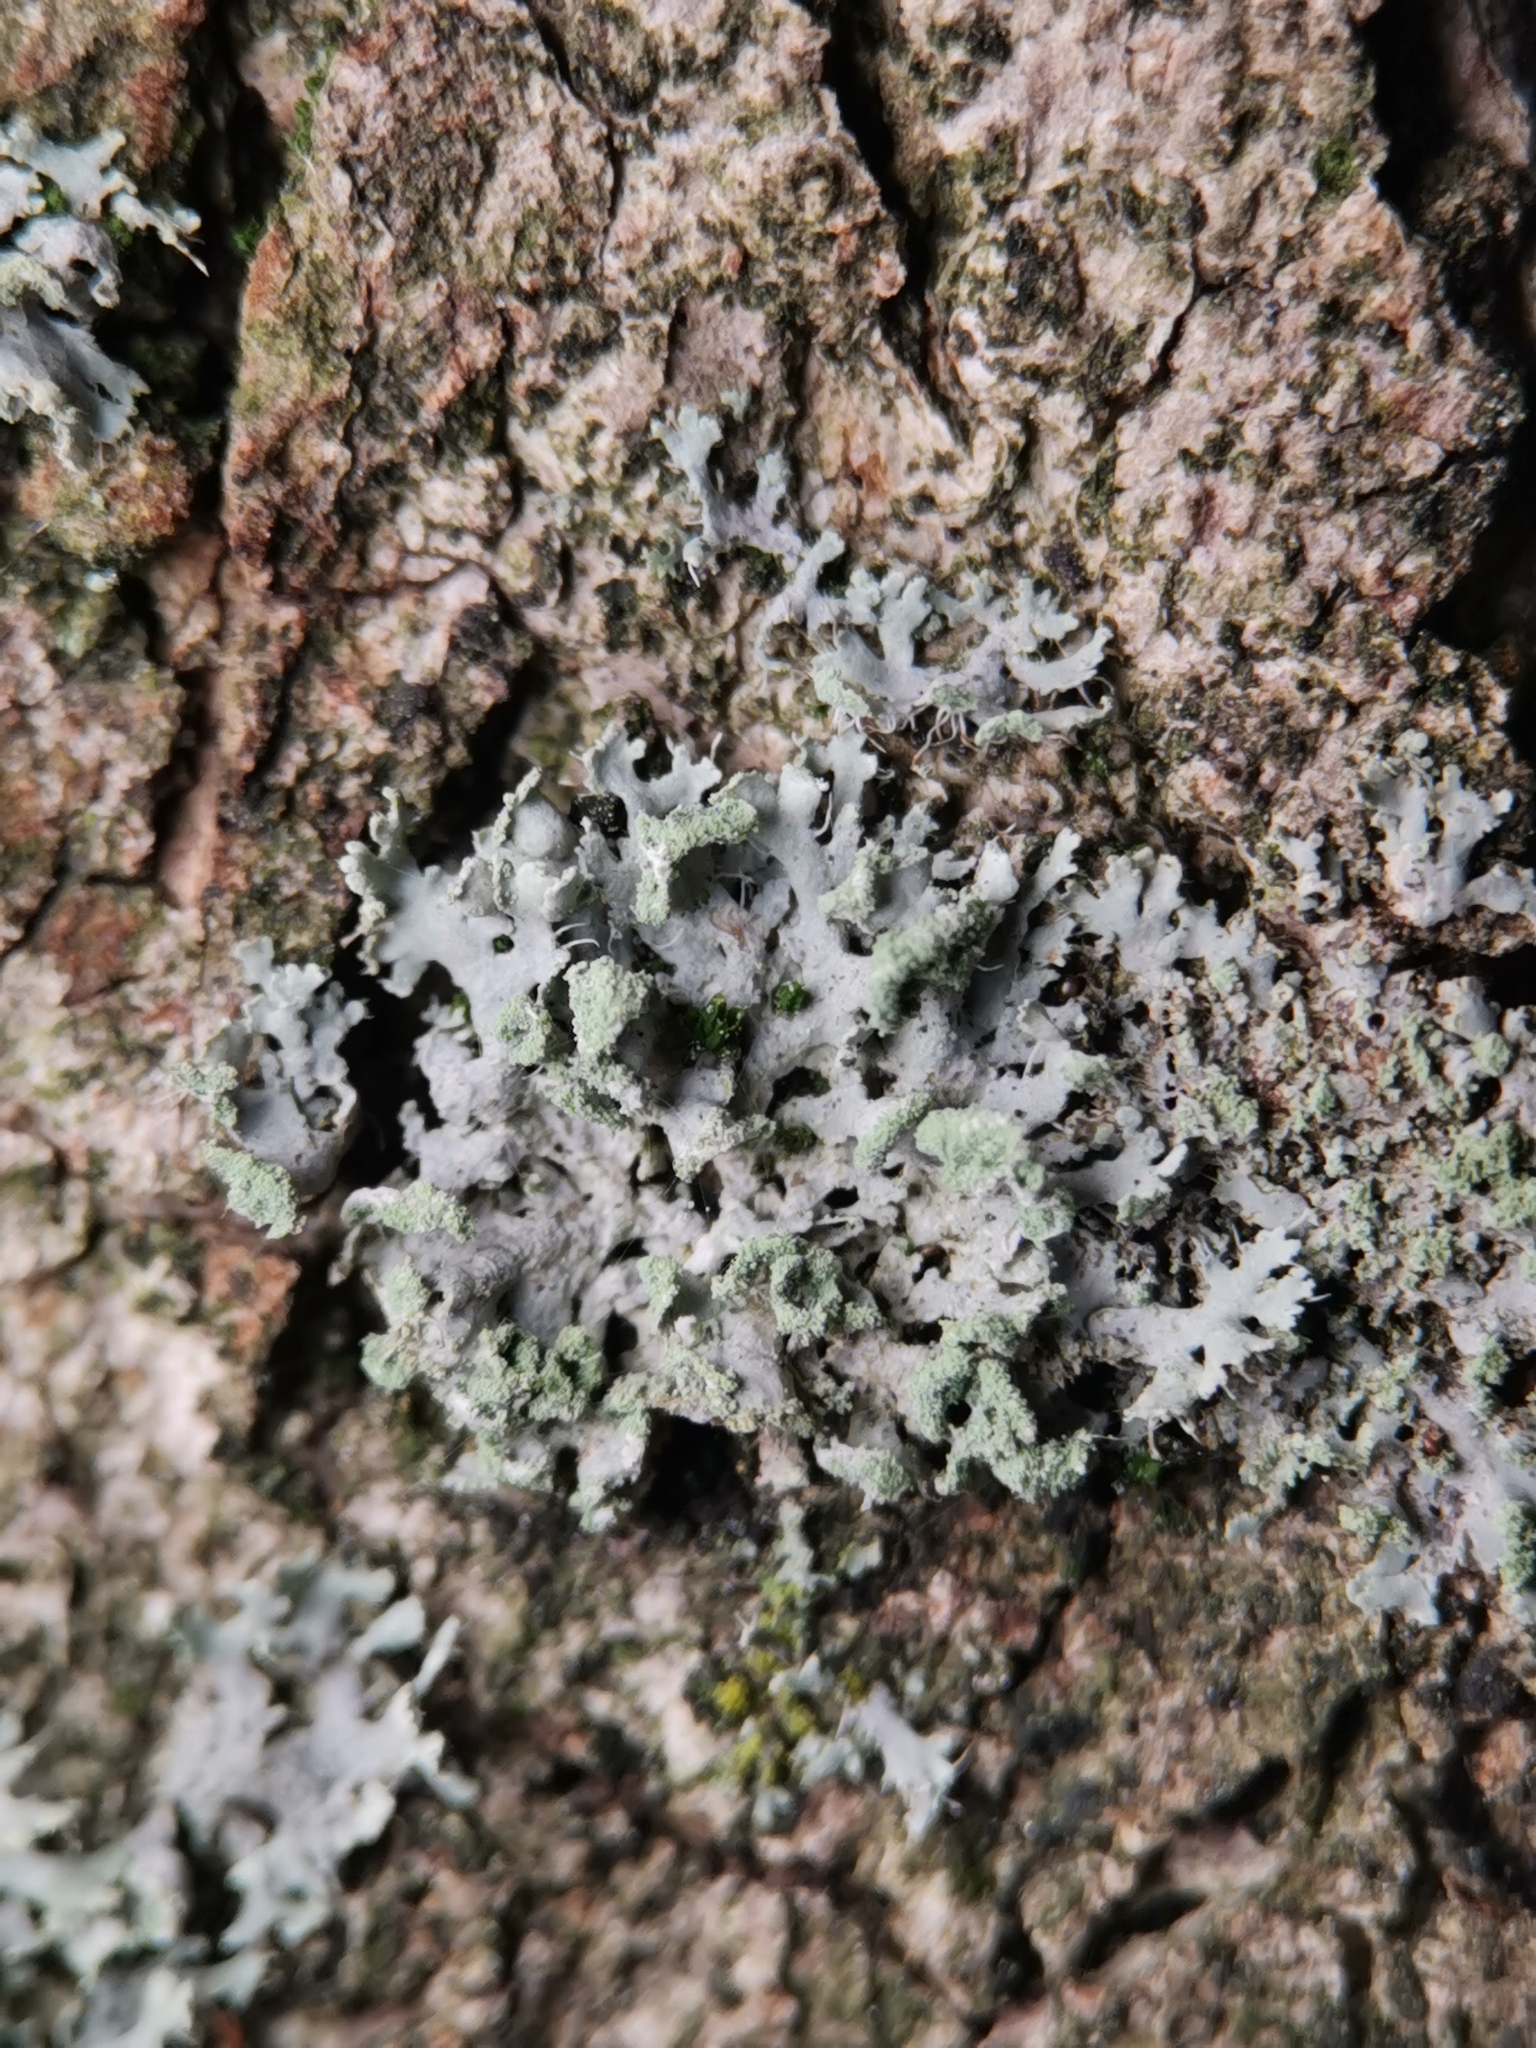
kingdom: Fungi
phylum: Ascomycota
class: Lecanoromycetes
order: Caliciales
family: Physciaceae
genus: Physcia
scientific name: Physcia tenella
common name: Fringed rosette lichen
